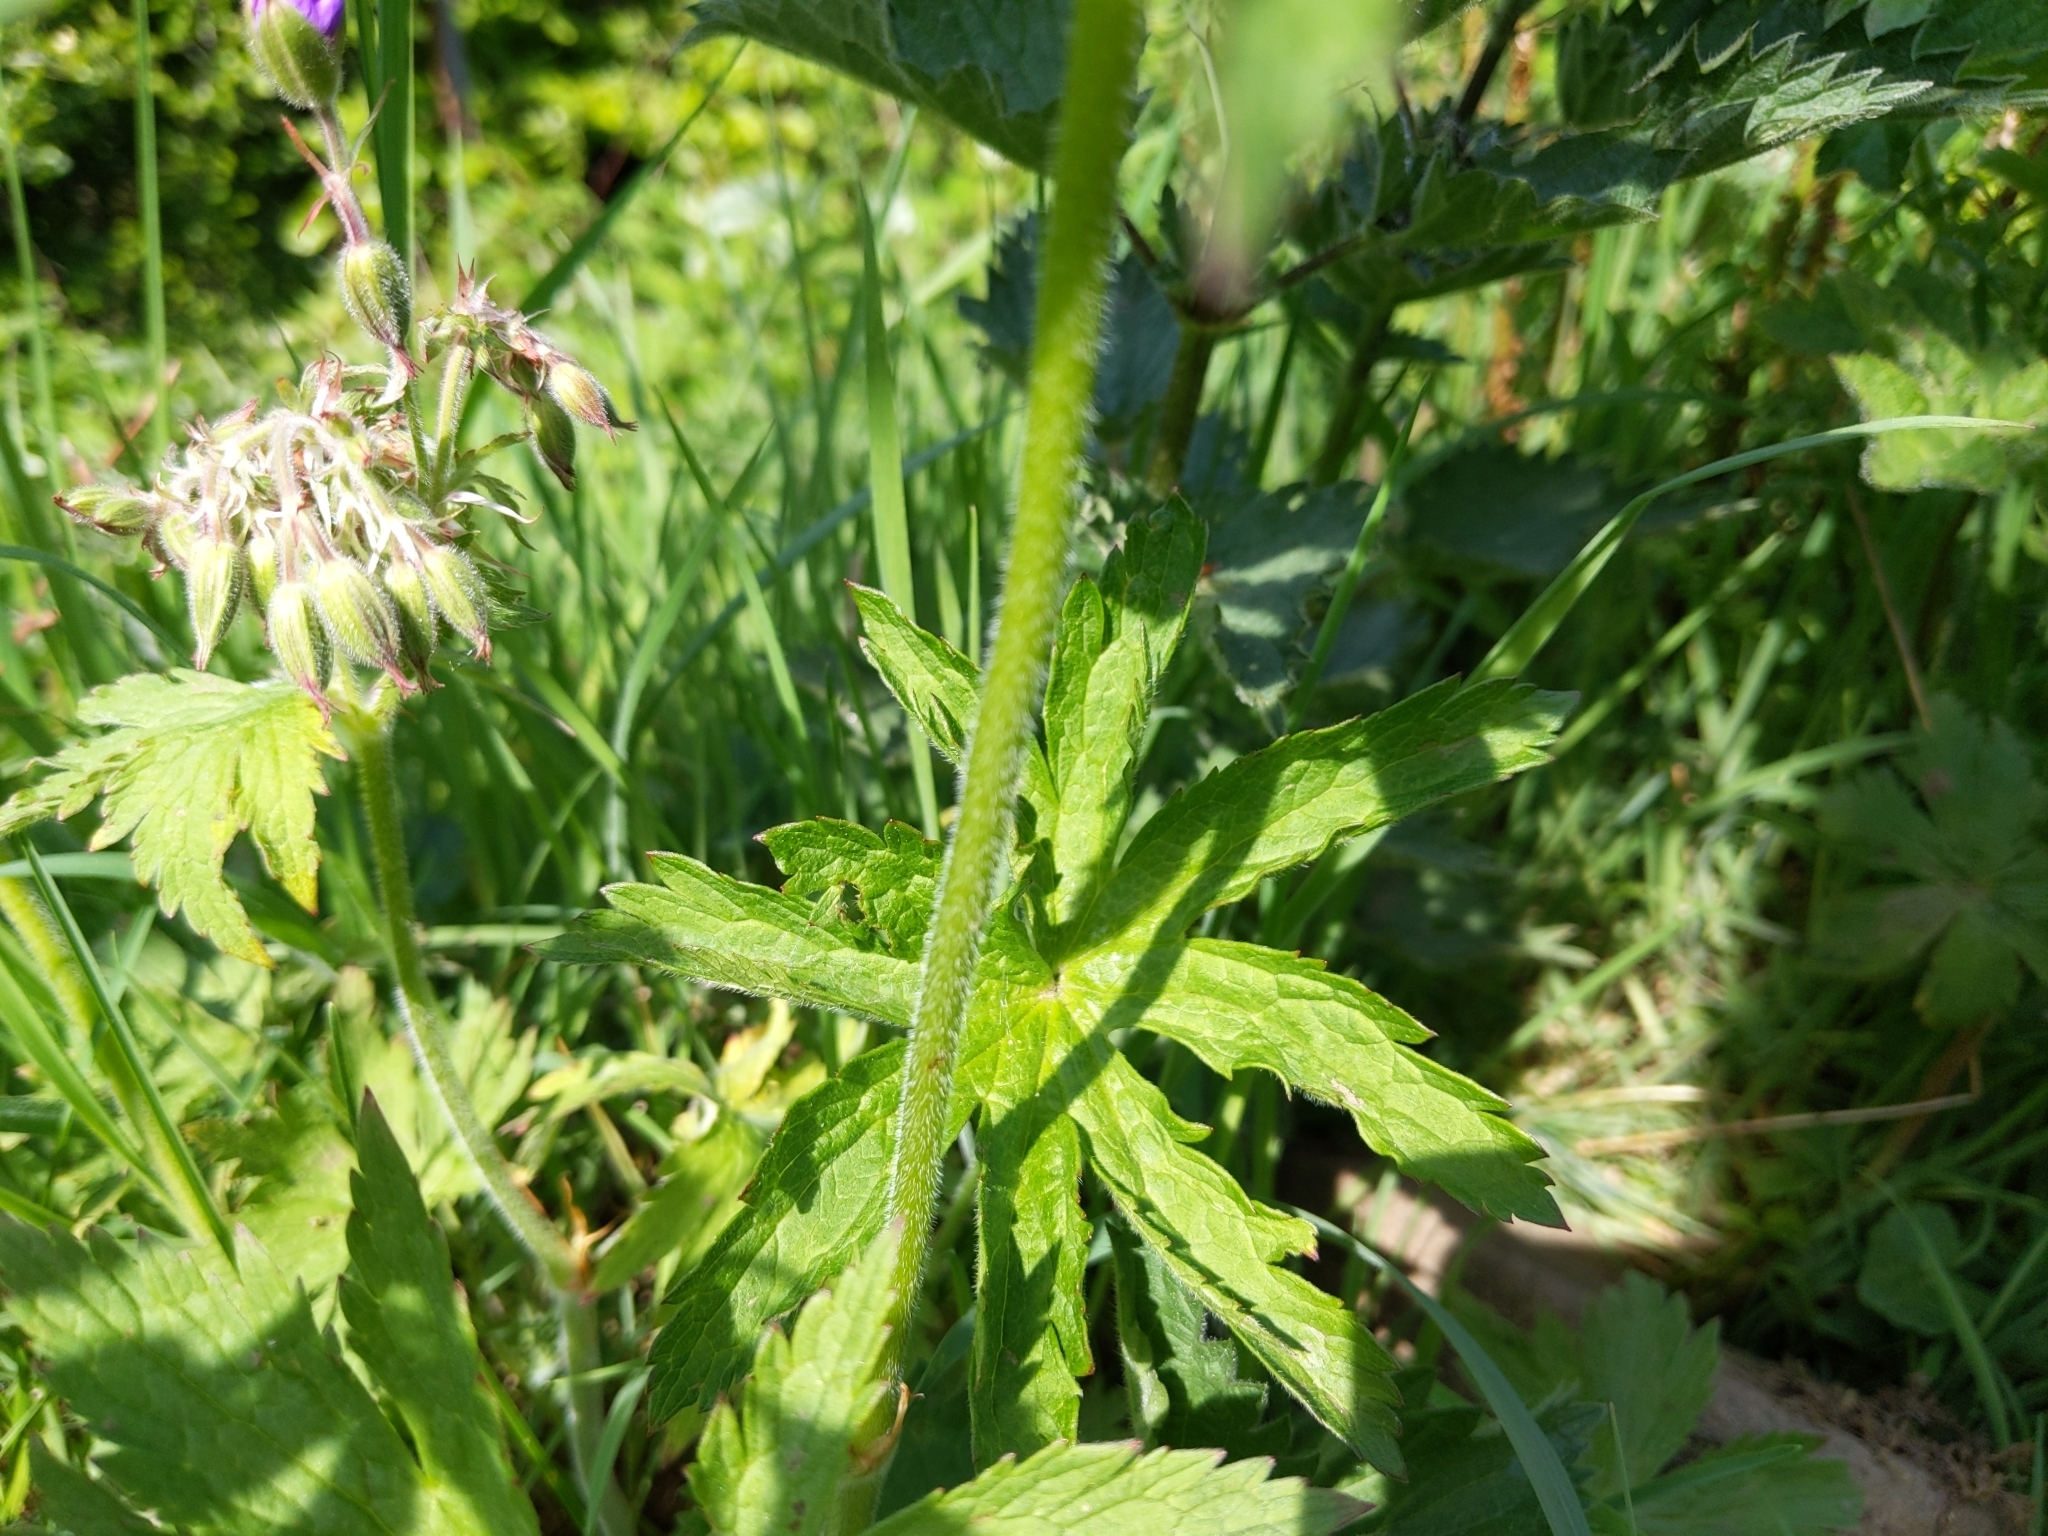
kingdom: Plantae
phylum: Tracheophyta
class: Magnoliopsida
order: Geraniales
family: Geraniaceae
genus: Geranium
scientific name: Geranium sylvaticum
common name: Wood crane's-bill
